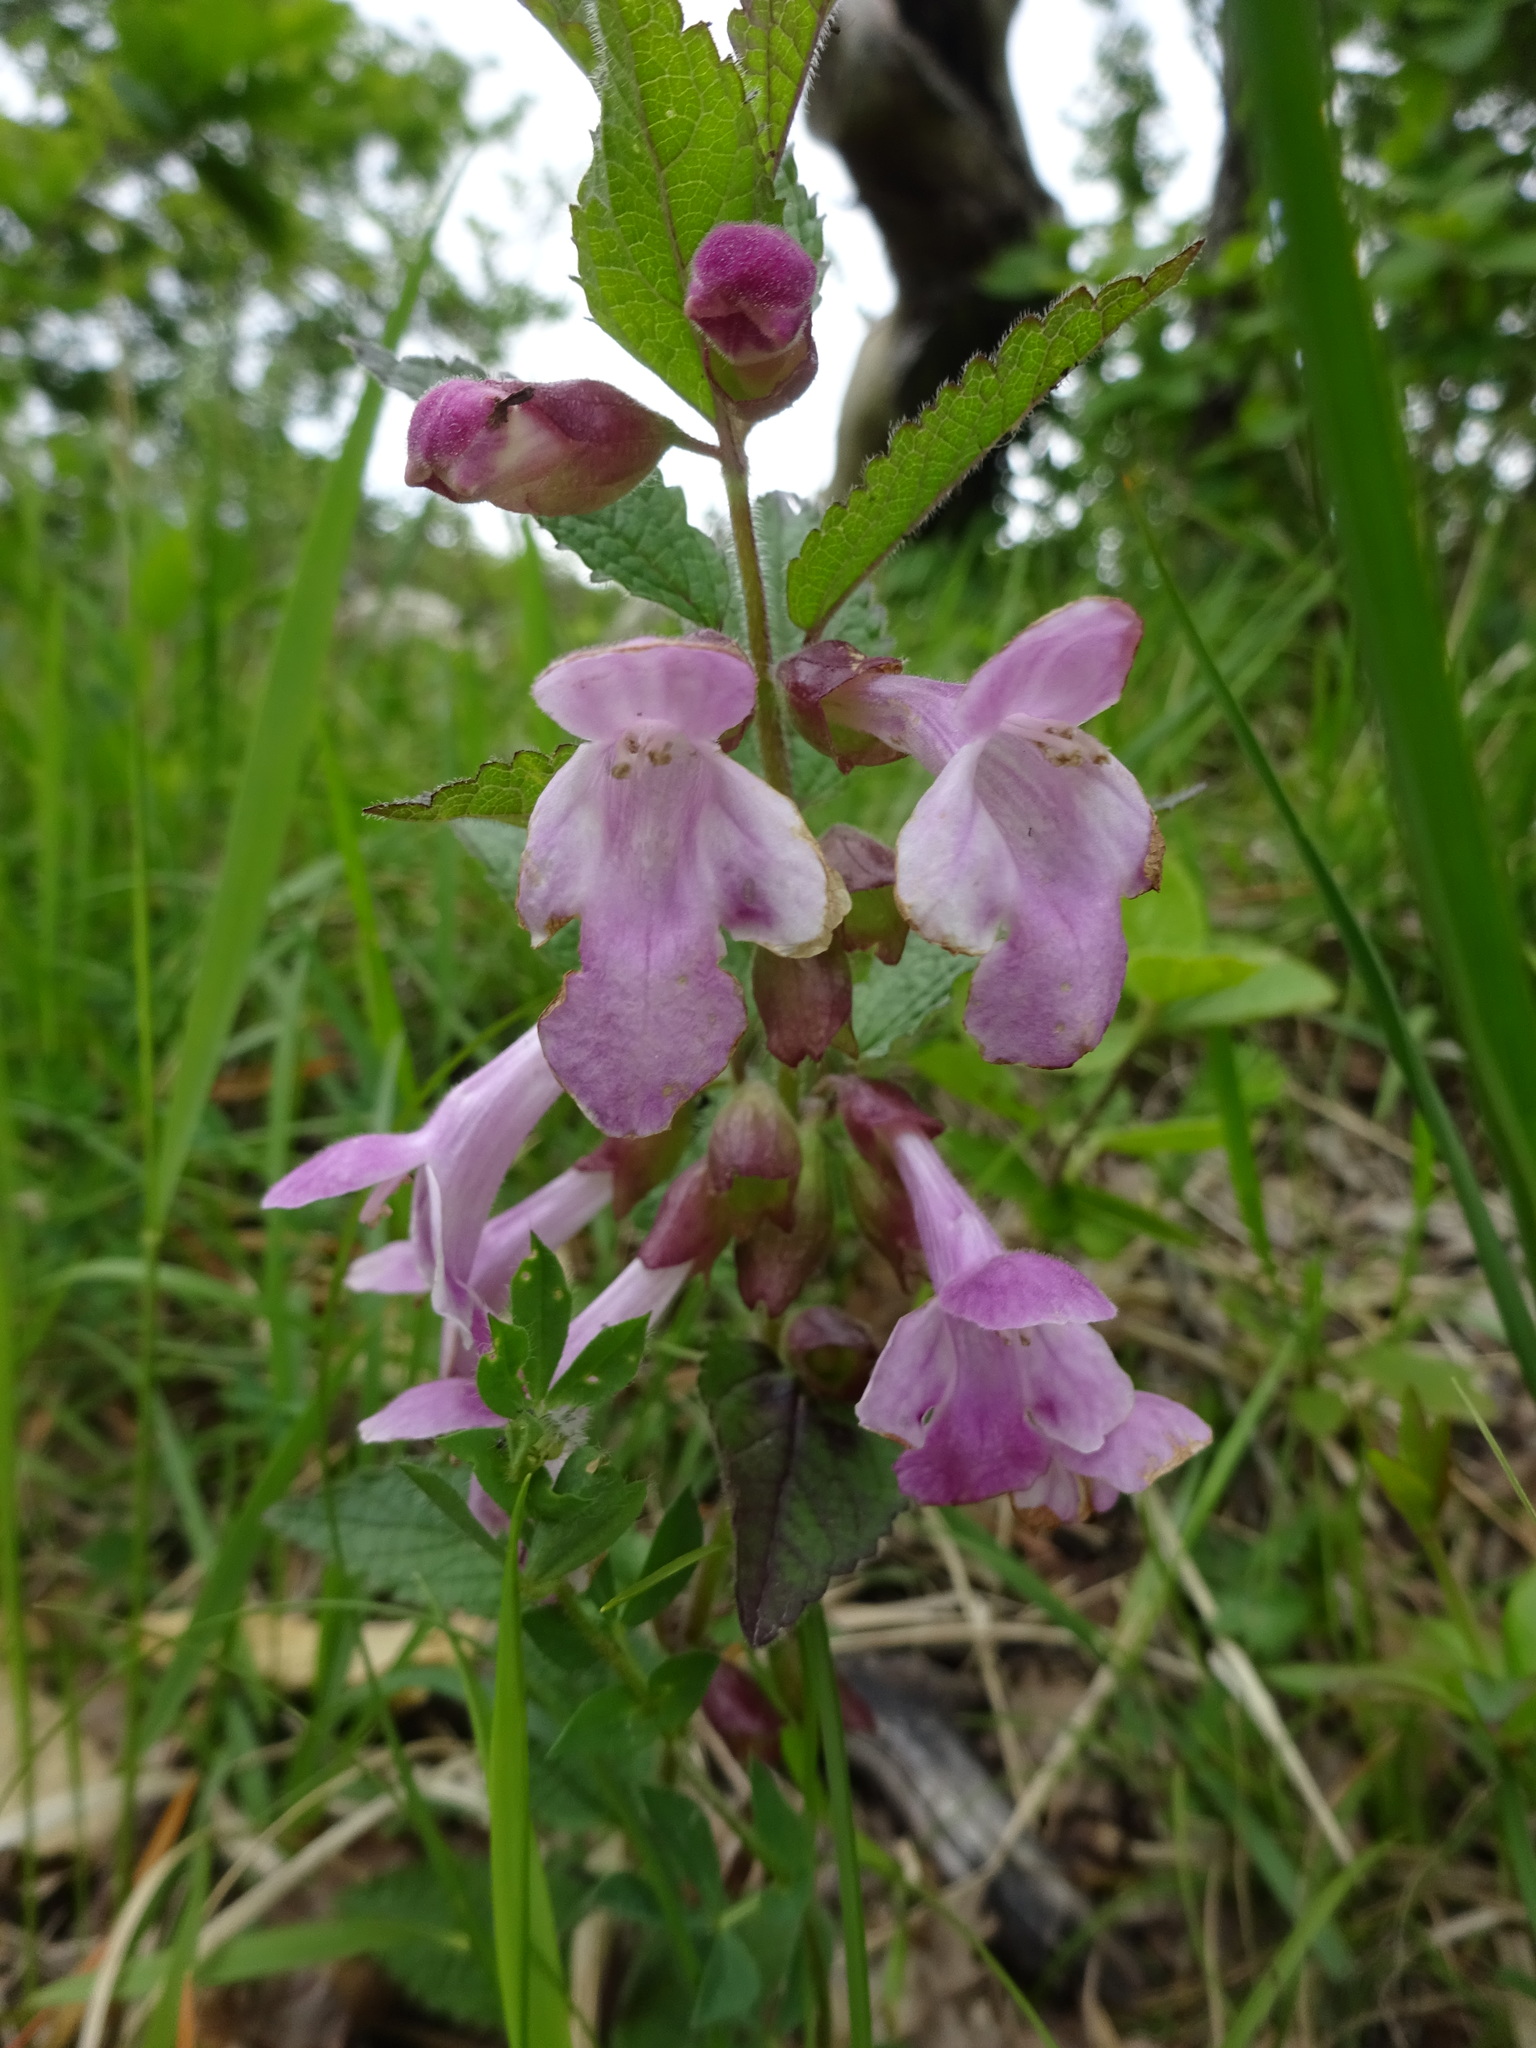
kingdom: Plantae
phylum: Tracheophyta
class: Magnoliopsida
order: Lamiales
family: Lamiaceae
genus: Melittis
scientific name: Melittis melissophyllum
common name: Bastard balm
